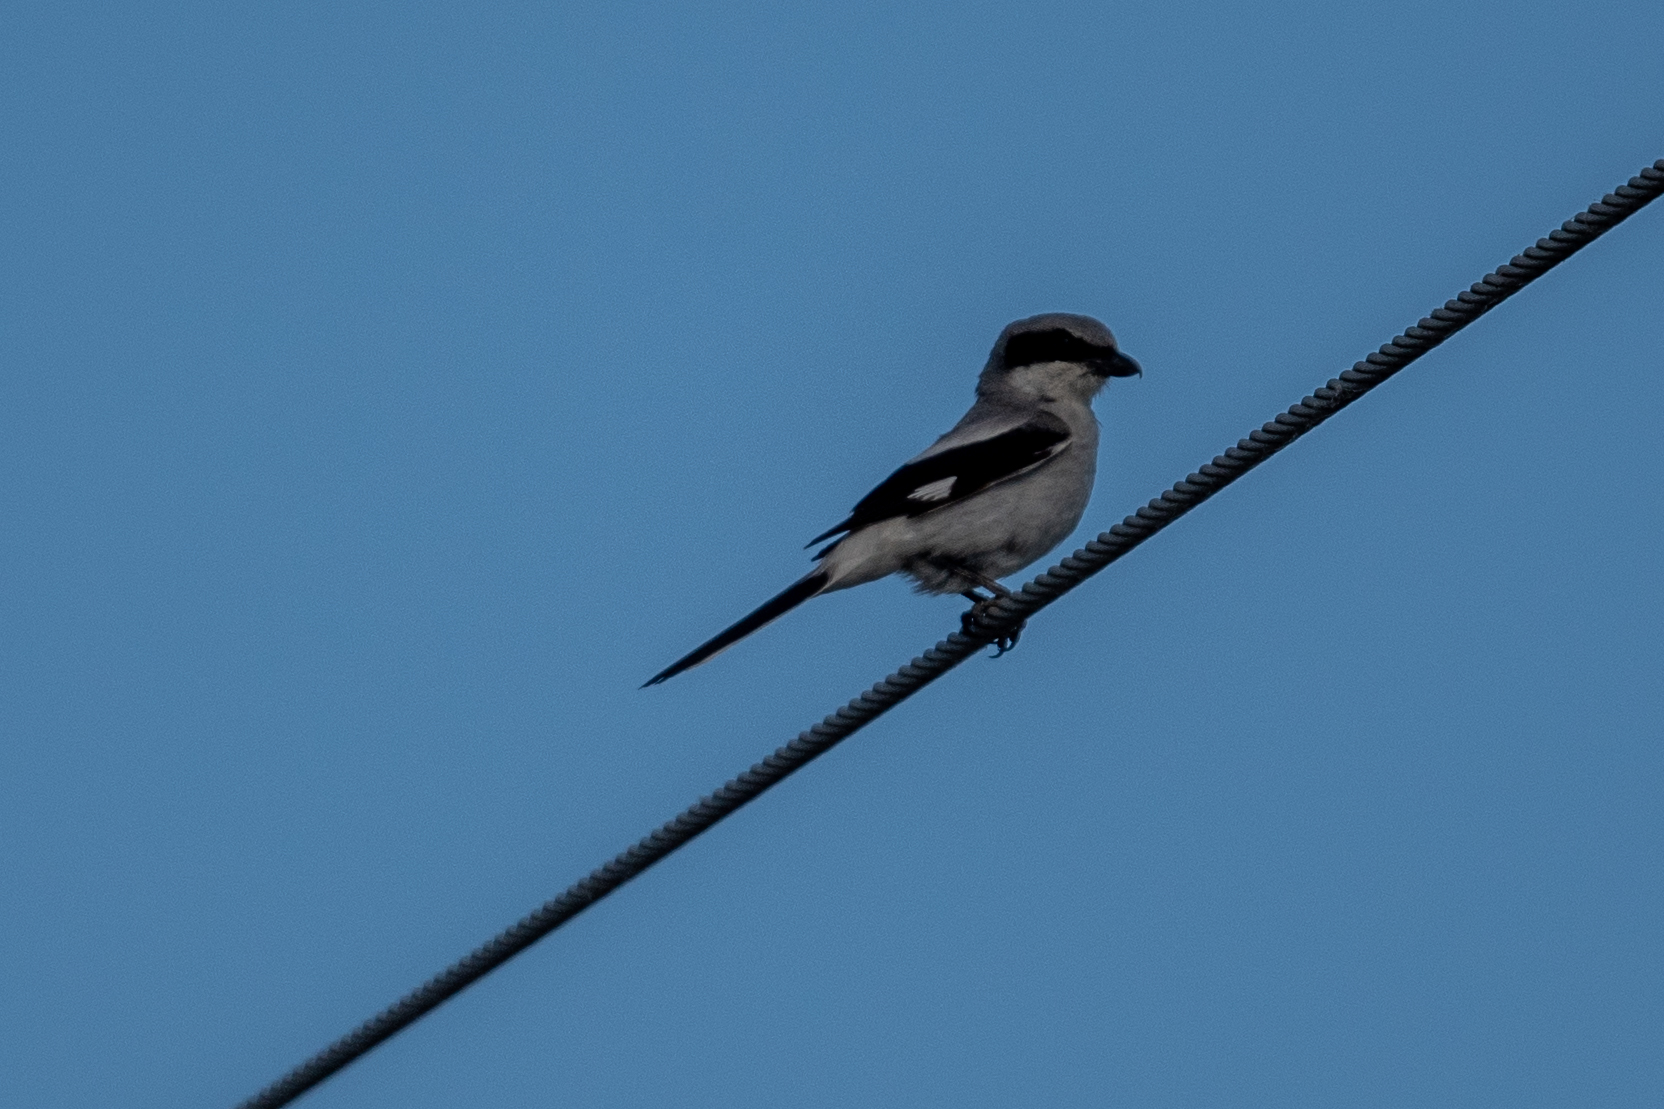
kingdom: Animalia
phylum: Chordata
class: Aves
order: Passeriformes
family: Laniidae
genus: Lanius
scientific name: Lanius ludovicianus
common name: Loggerhead shrike
